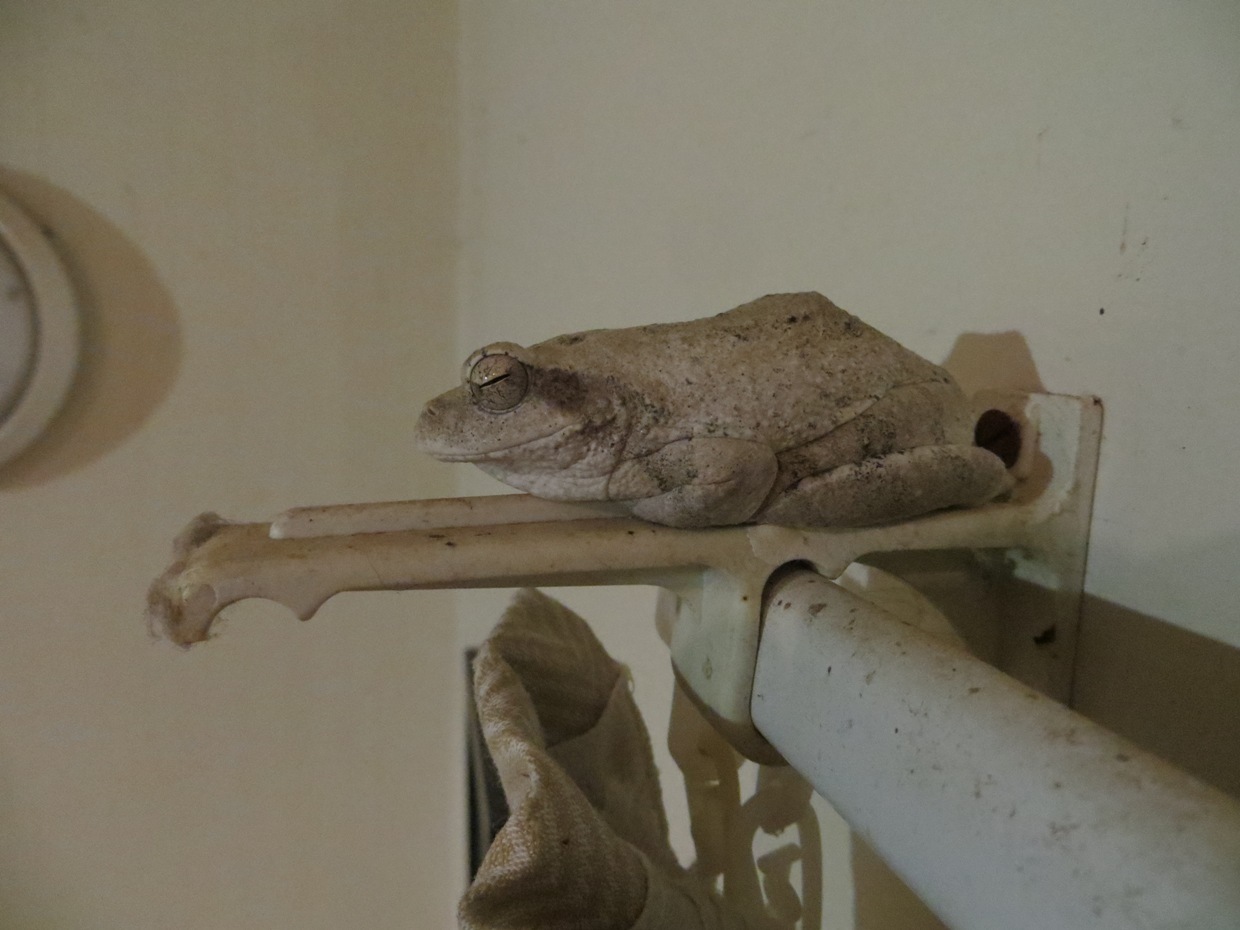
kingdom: Animalia
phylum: Chordata
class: Amphibia
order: Anura
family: Rhacophoridae
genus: Chiromantis
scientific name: Chiromantis xerampelina
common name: African gray treefrog
